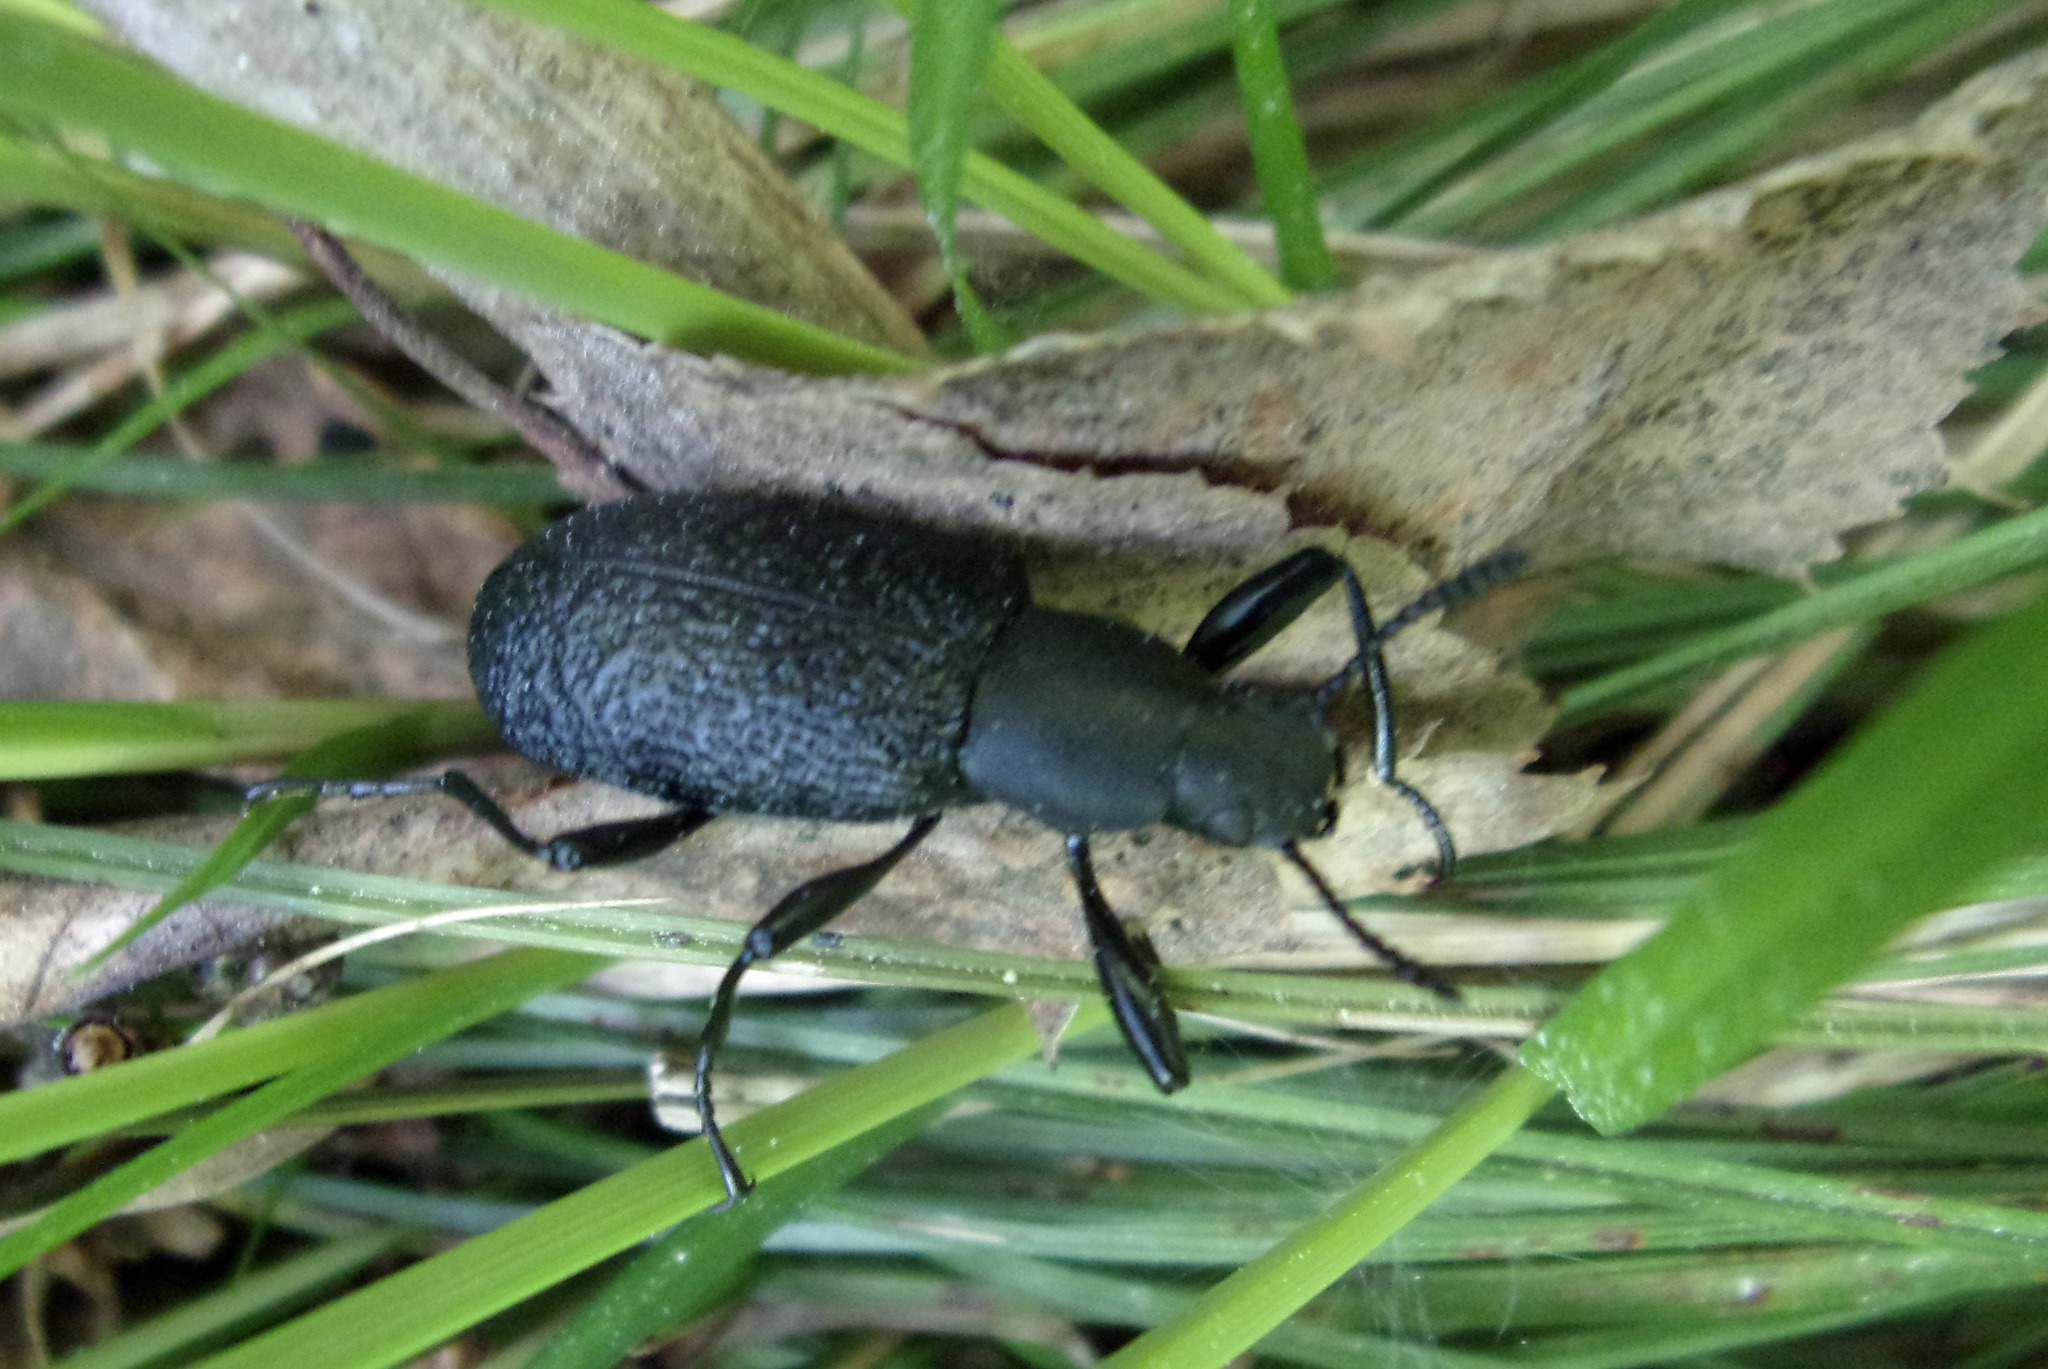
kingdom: Animalia
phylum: Arthropoda
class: Insecta
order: Coleoptera
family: Tenebrionidae
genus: Upis
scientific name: Upis ceramboides
